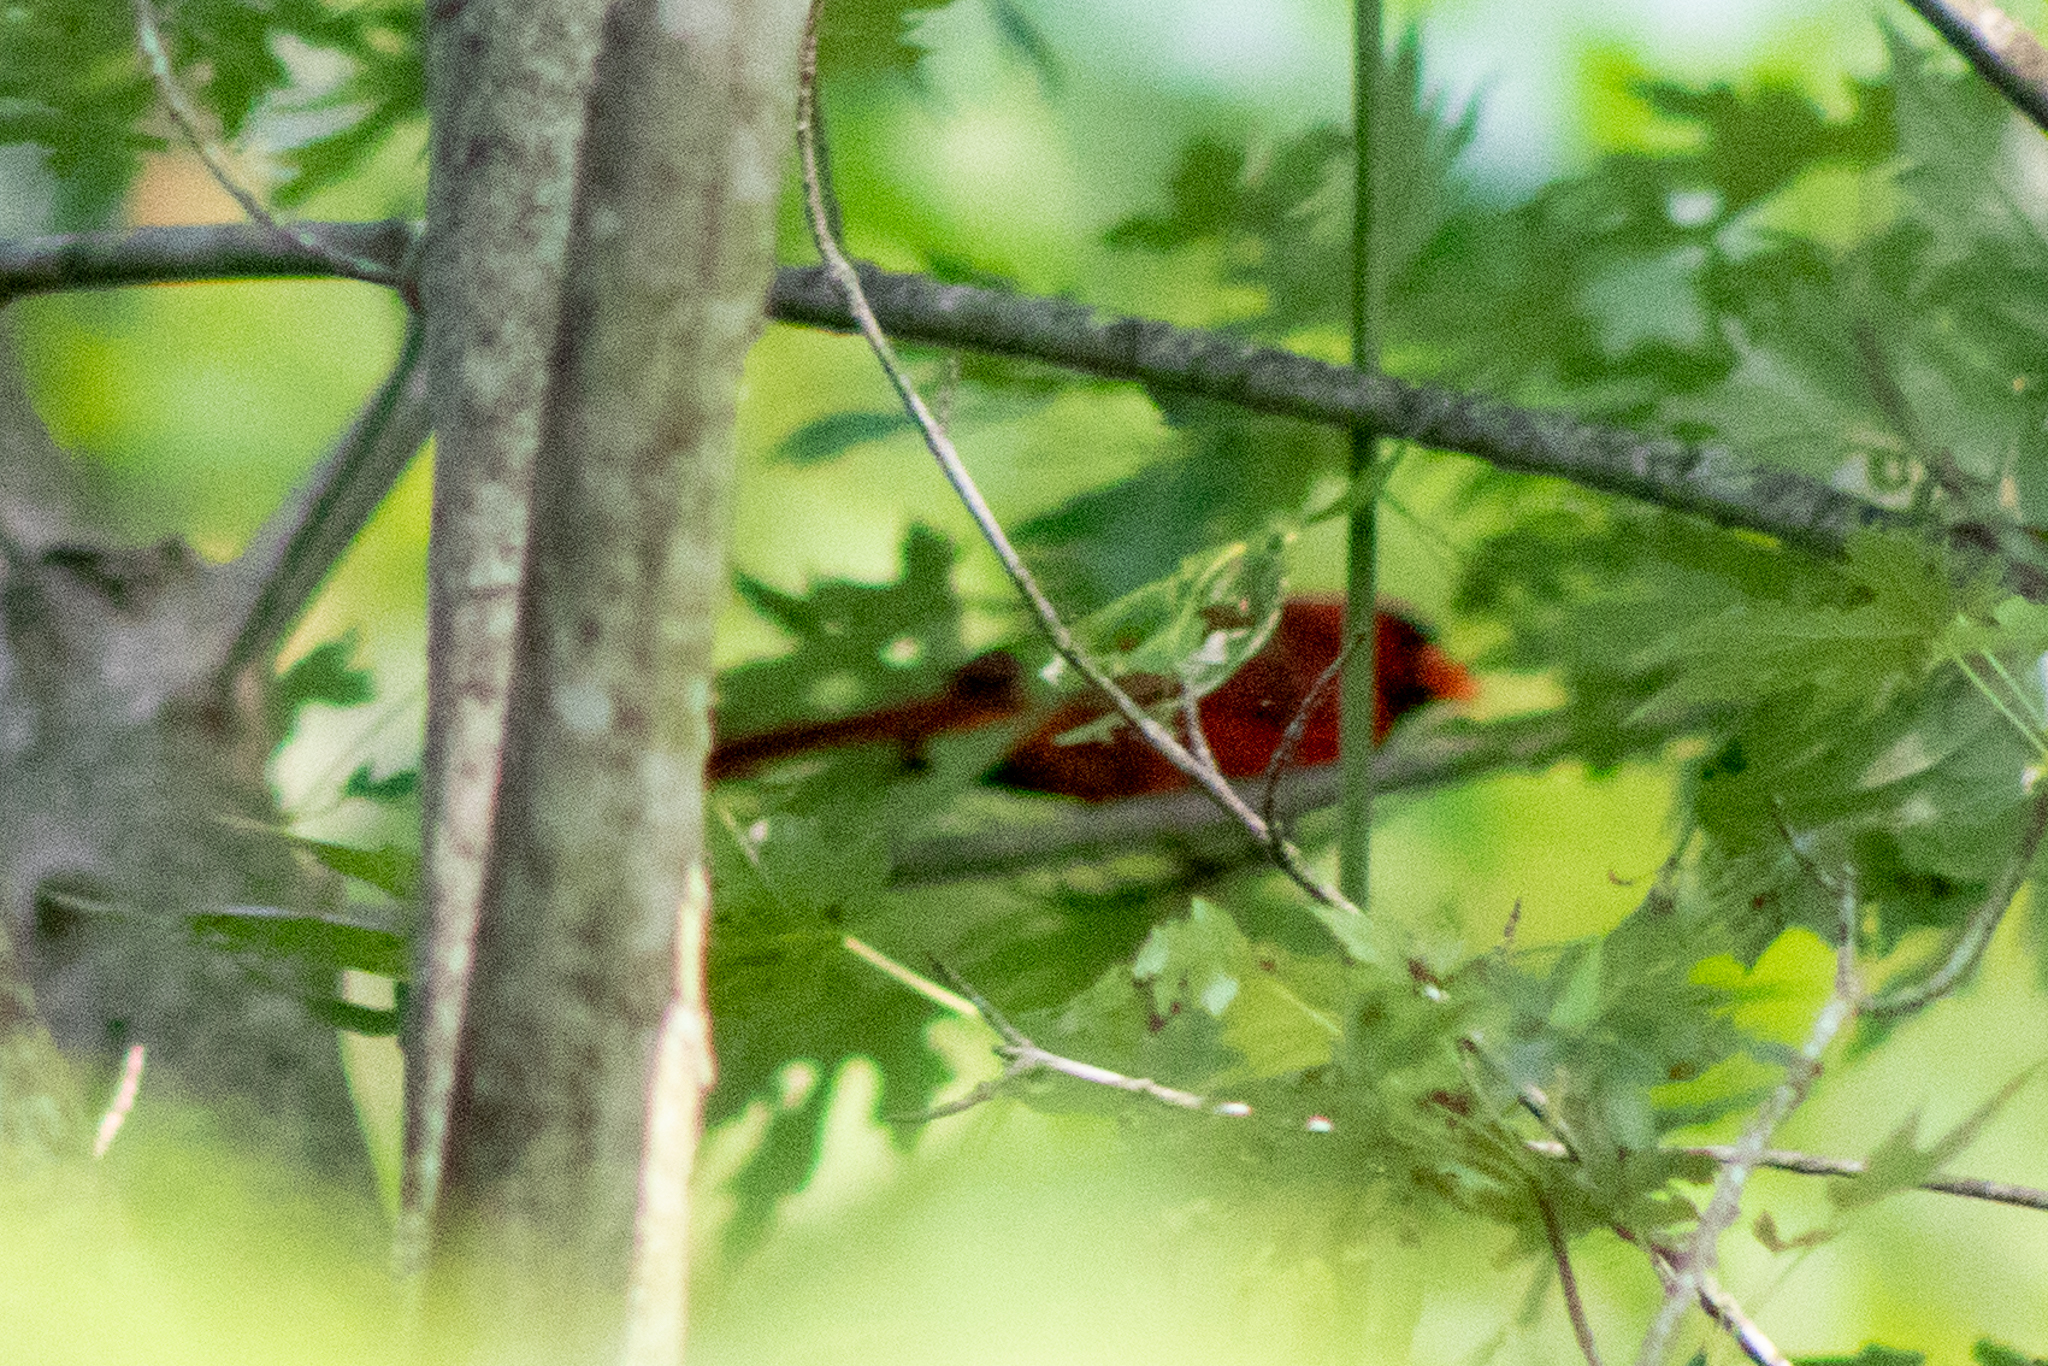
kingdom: Animalia
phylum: Chordata
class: Aves
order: Passeriformes
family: Cardinalidae
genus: Cardinalis
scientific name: Cardinalis cardinalis
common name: Northern cardinal
